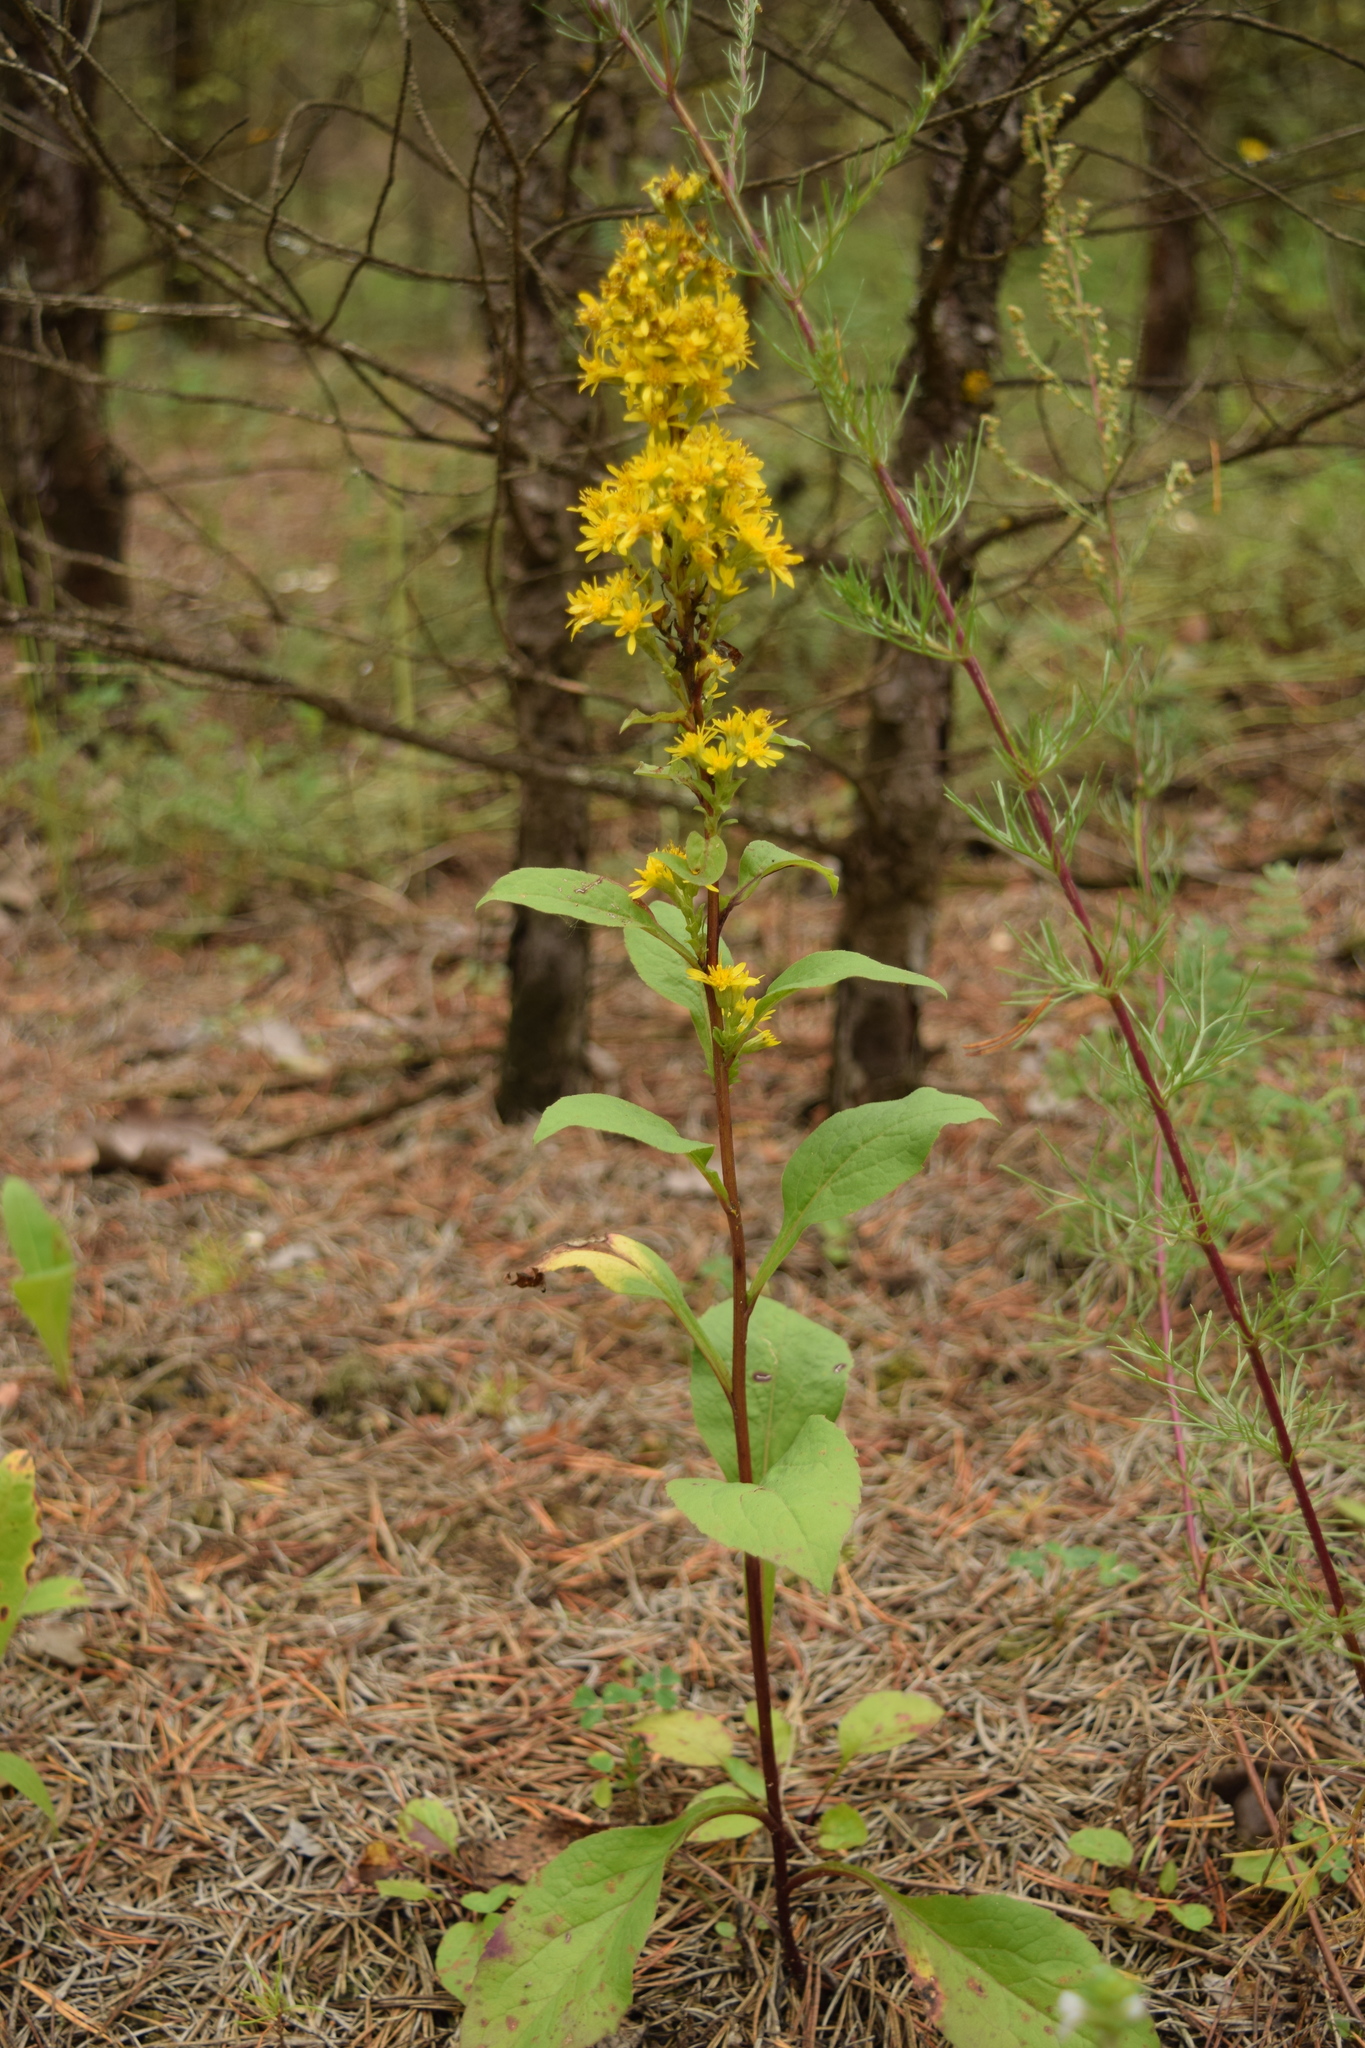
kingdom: Plantae
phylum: Tracheophyta
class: Magnoliopsida
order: Asterales
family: Asteraceae
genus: Solidago
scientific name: Solidago virgaurea
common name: Goldenrod
